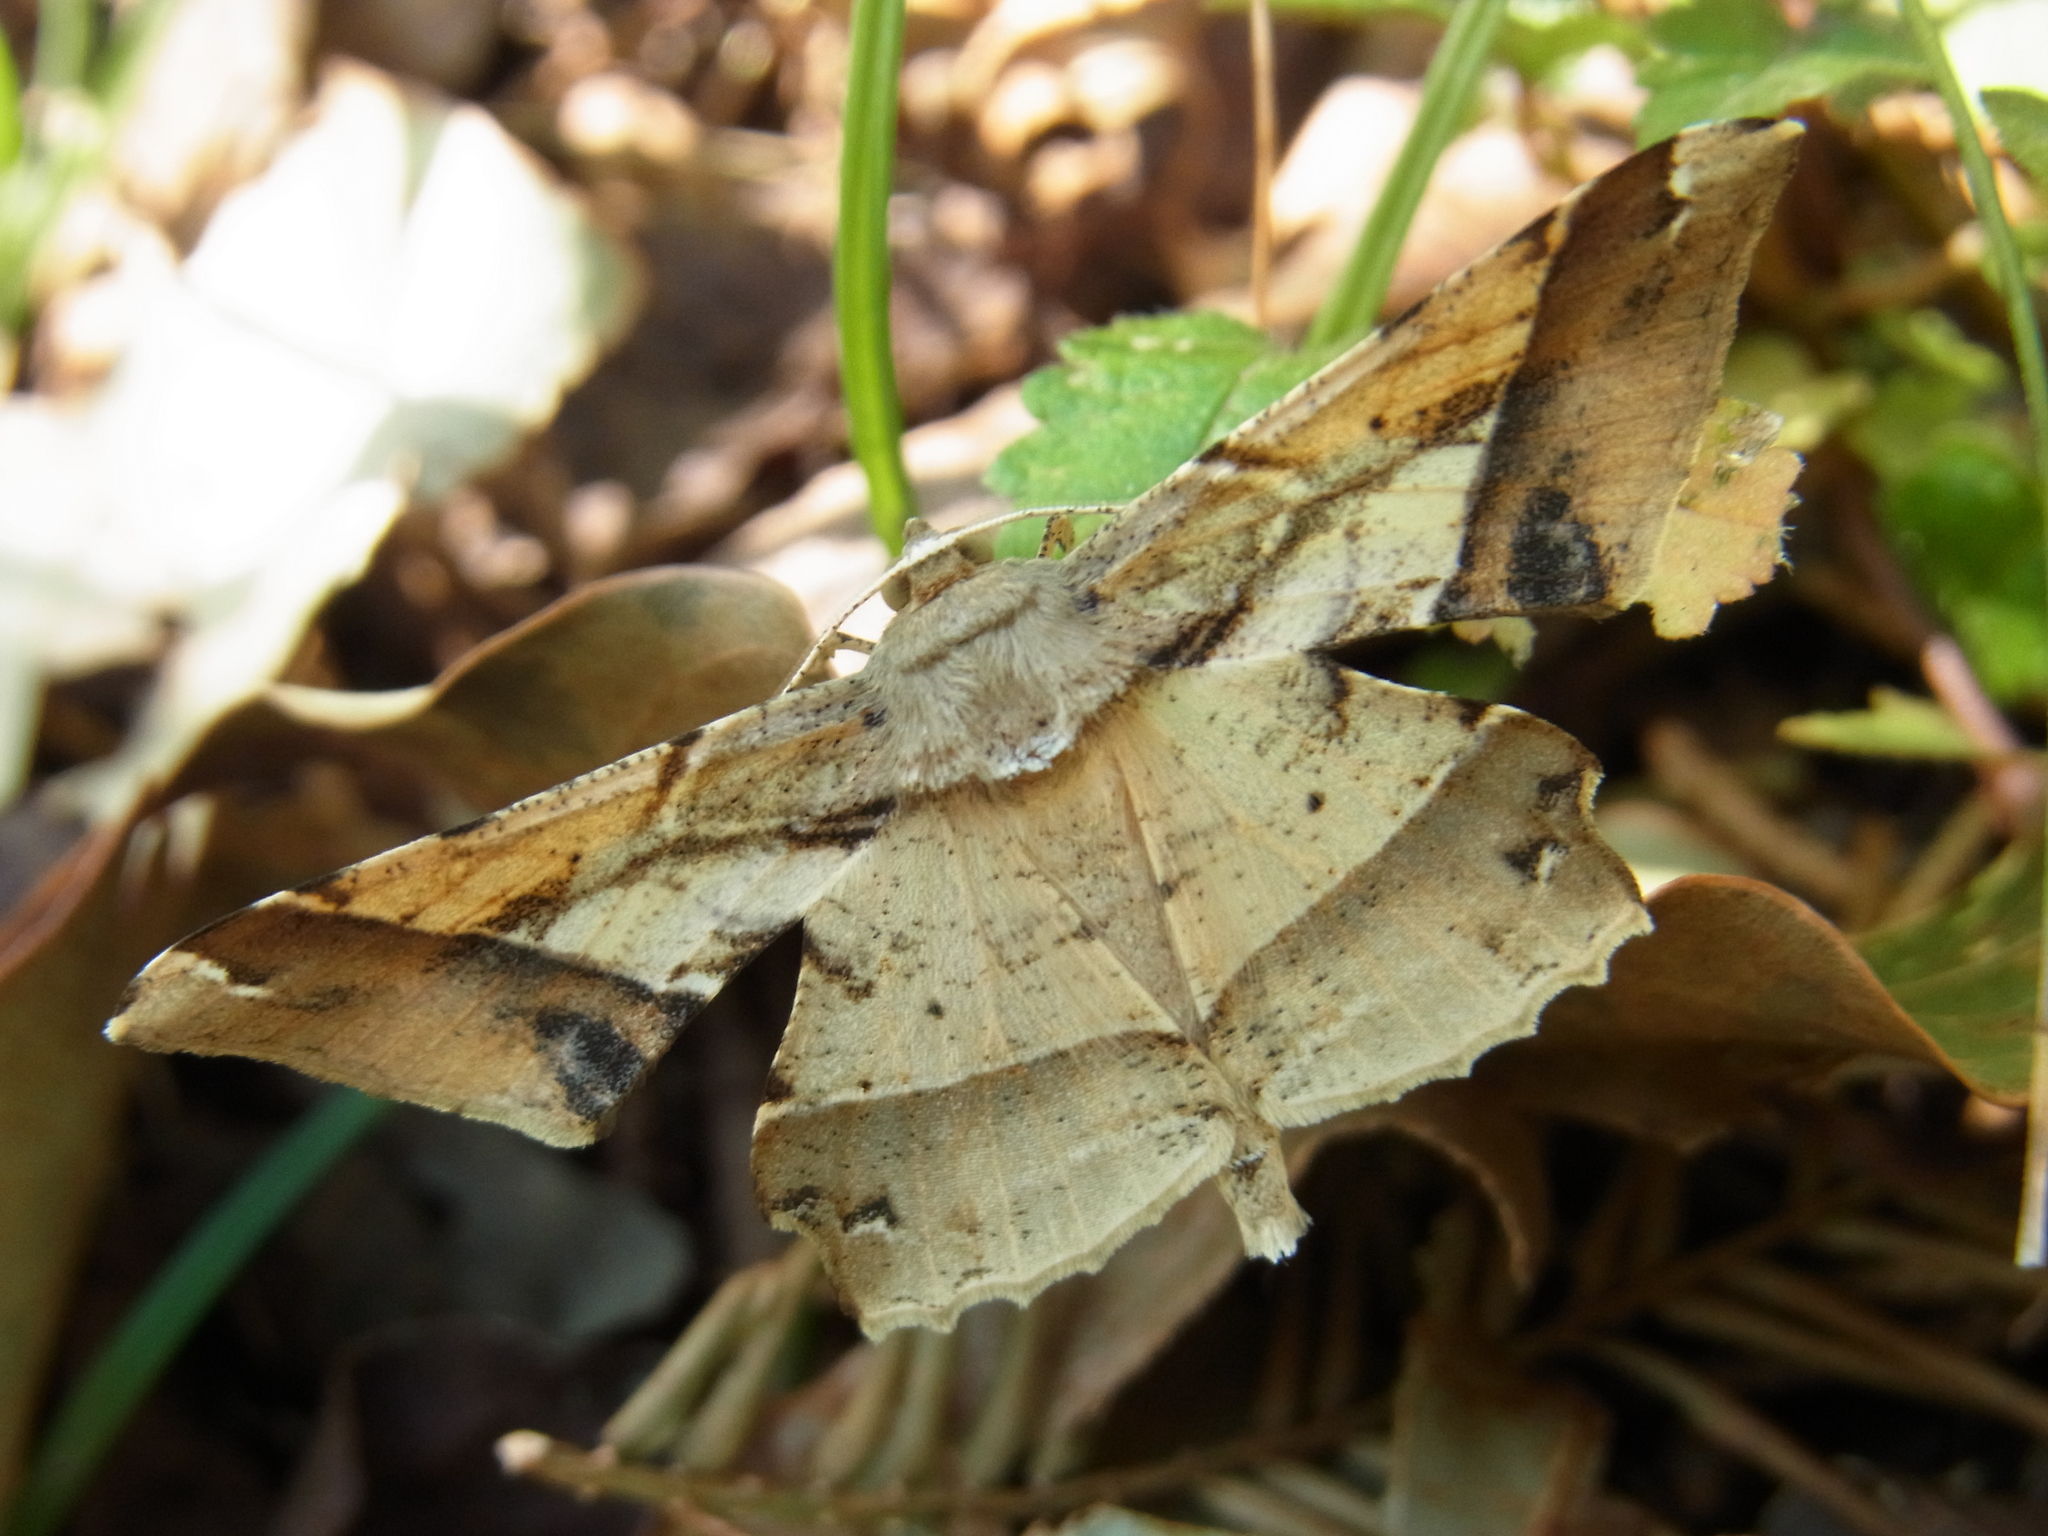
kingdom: Animalia
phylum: Arthropoda
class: Insecta
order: Lepidoptera
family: Geometridae
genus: Krananda
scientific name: Krananda latimarginaria
